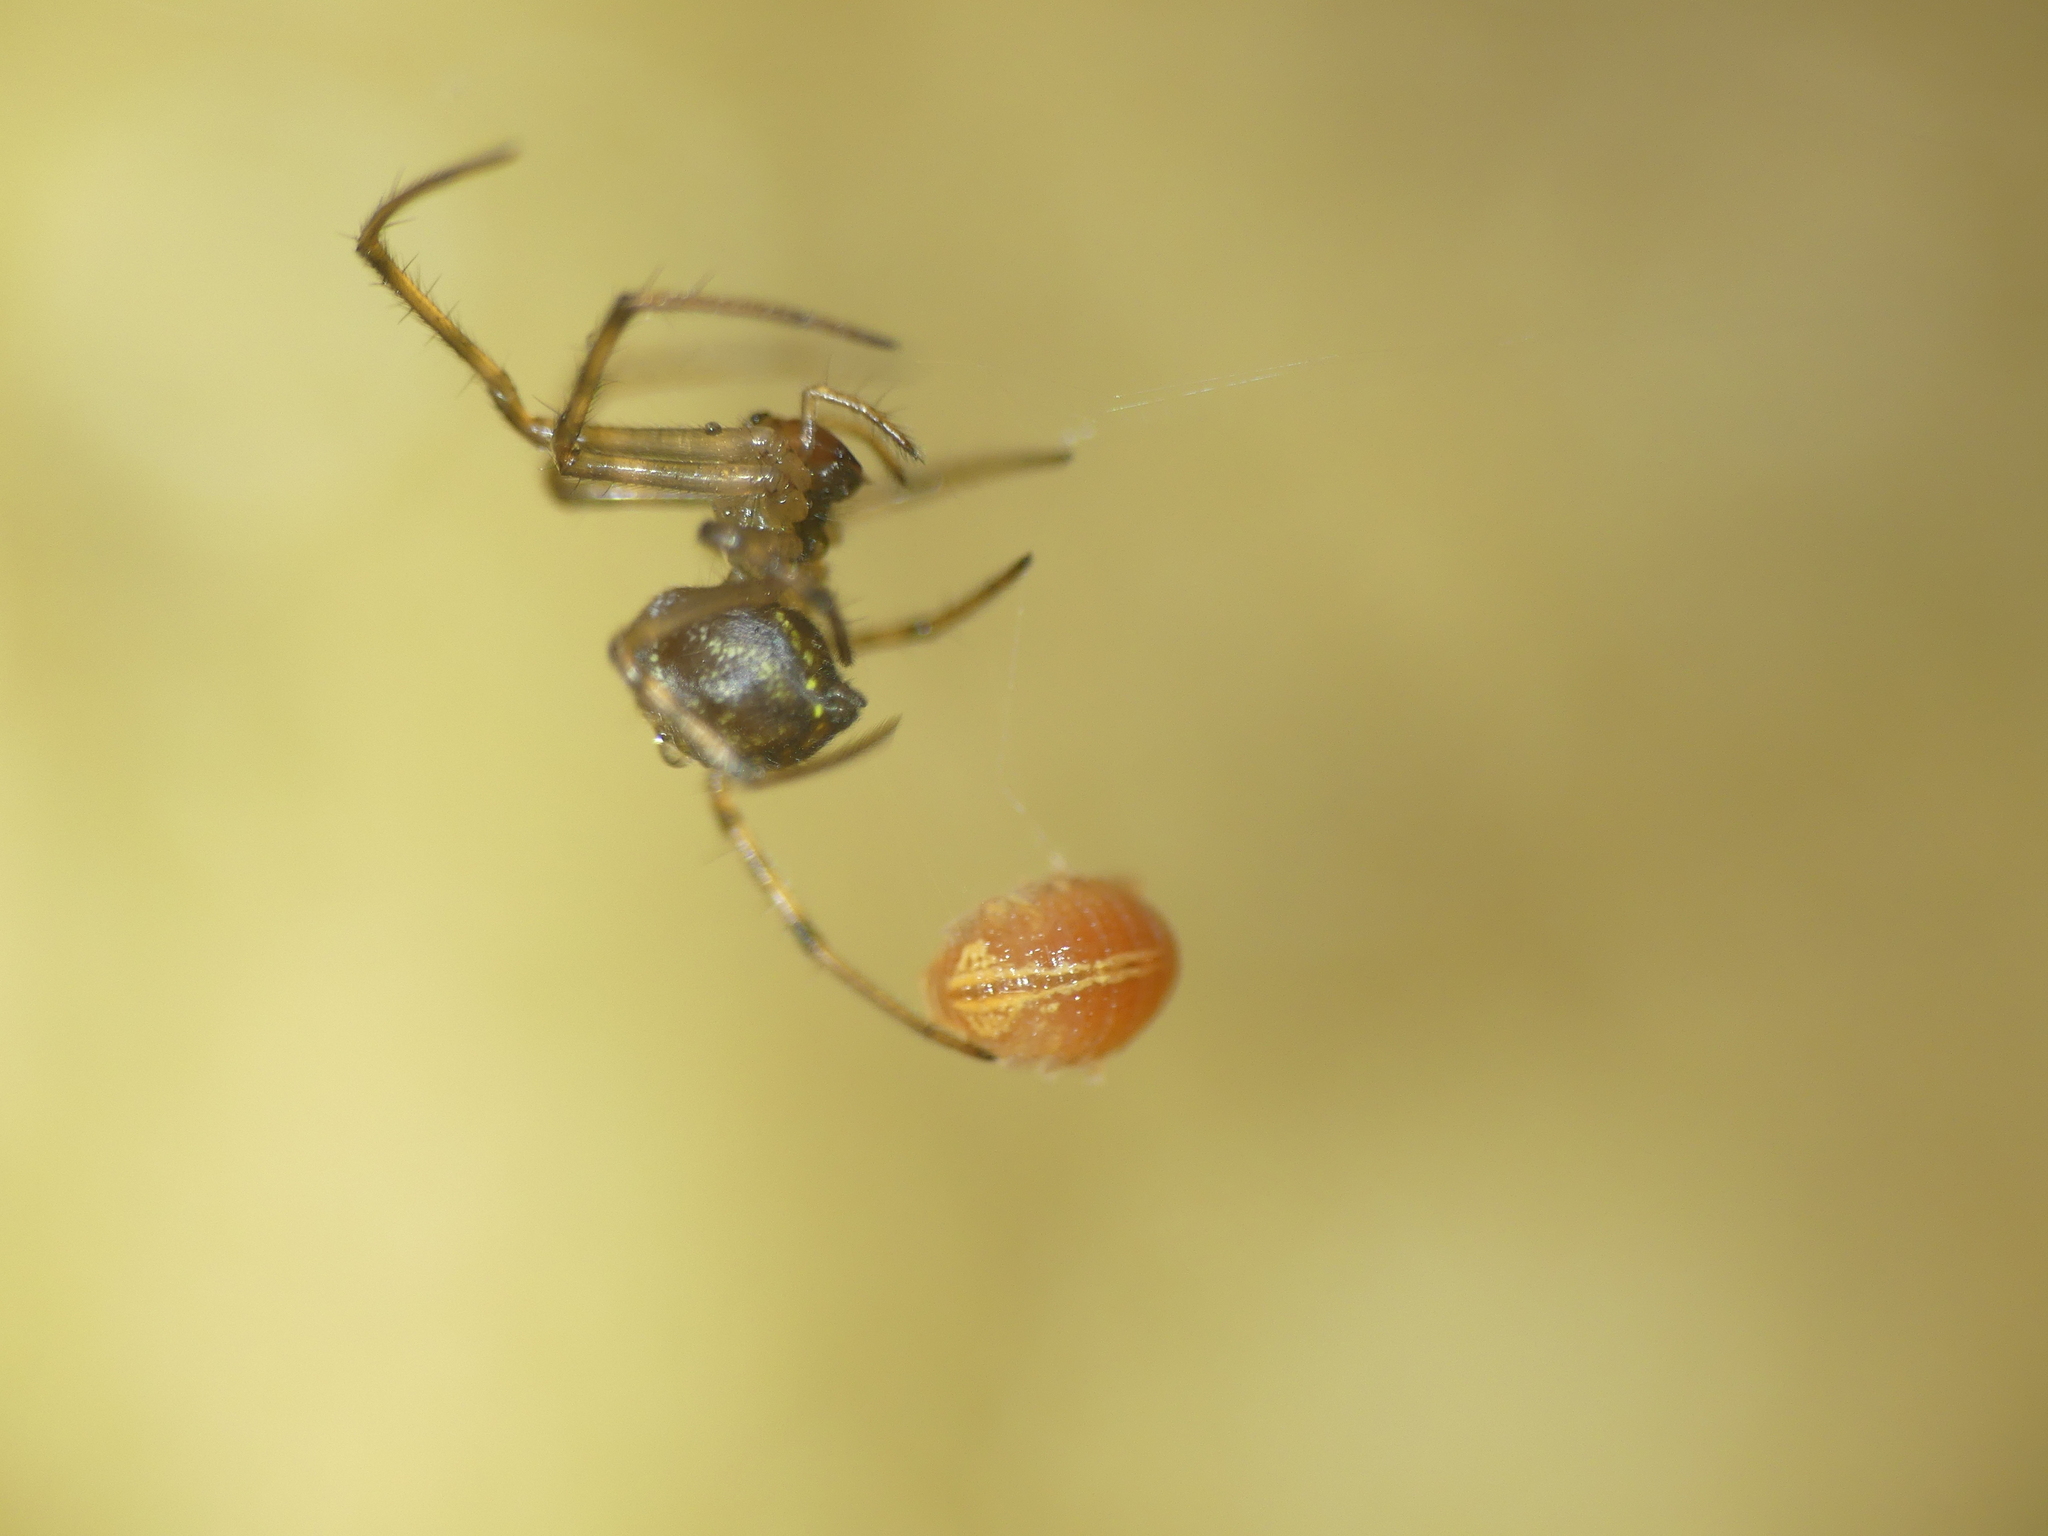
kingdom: Animalia
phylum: Arthropoda
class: Malacostraca
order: Isopoda
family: Trichoniscidae
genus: Androniscus
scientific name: Androniscus dentiger
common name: Rosy woodlouse
